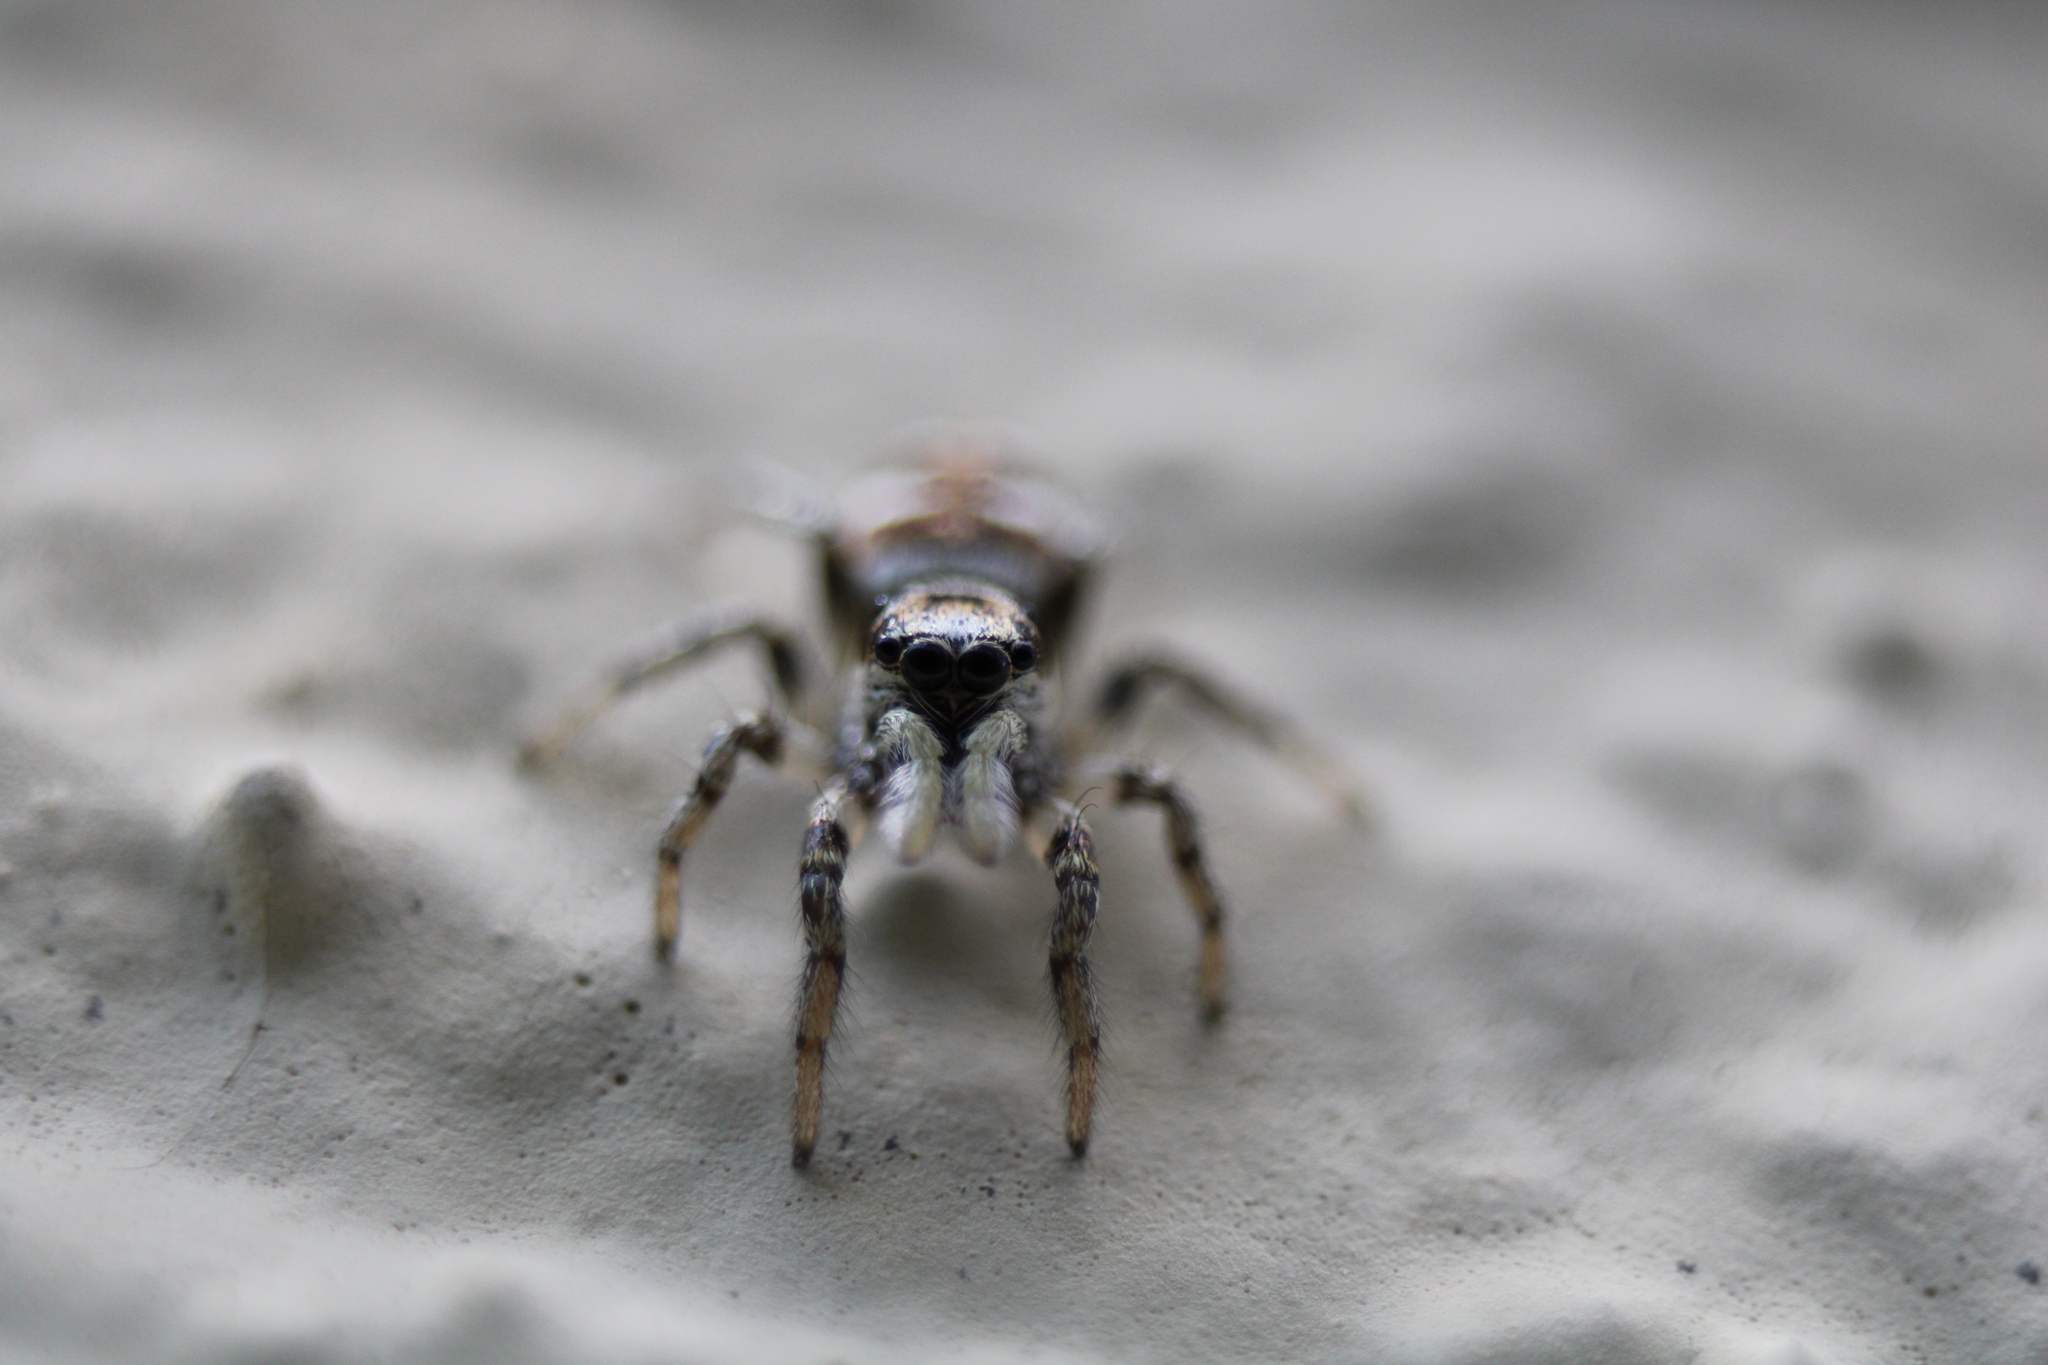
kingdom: Animalia
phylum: Arthropoda
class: Arachnida
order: Araneae
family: Salticidae
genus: Salticus
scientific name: Salticus scenicus
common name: Zebra jumper
